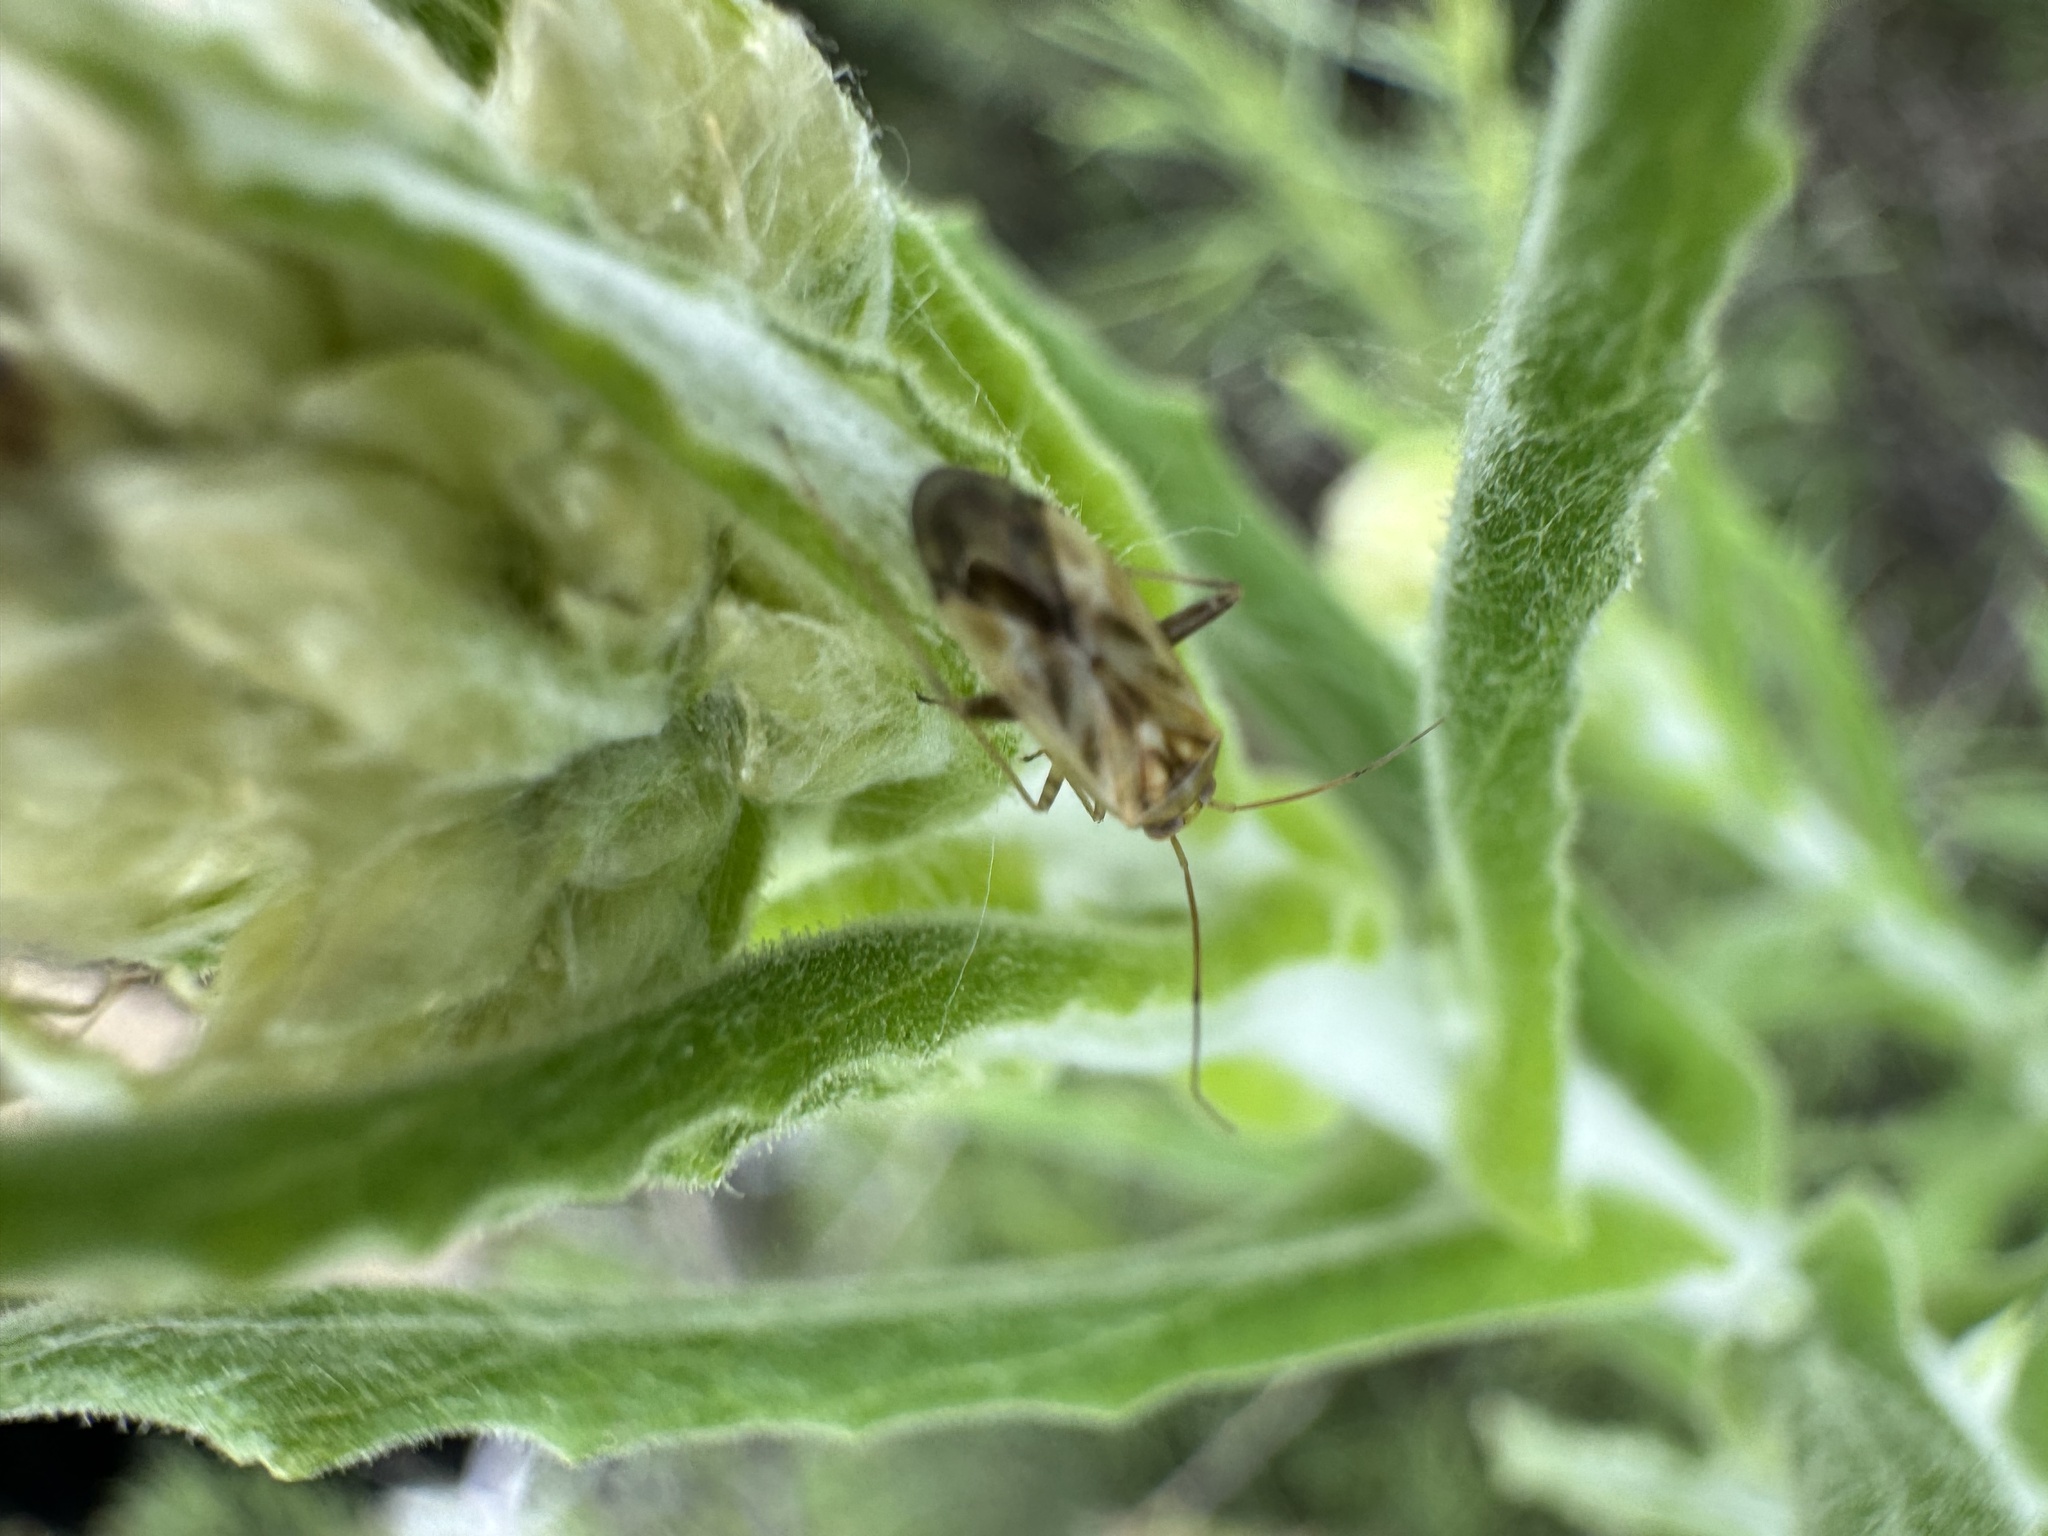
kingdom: Animalia
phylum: Arthropoda
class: Insecta
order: Hemiptera
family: Miridae
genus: Taylorilygus
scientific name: Taylorilygus apicalis
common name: Plant bug
